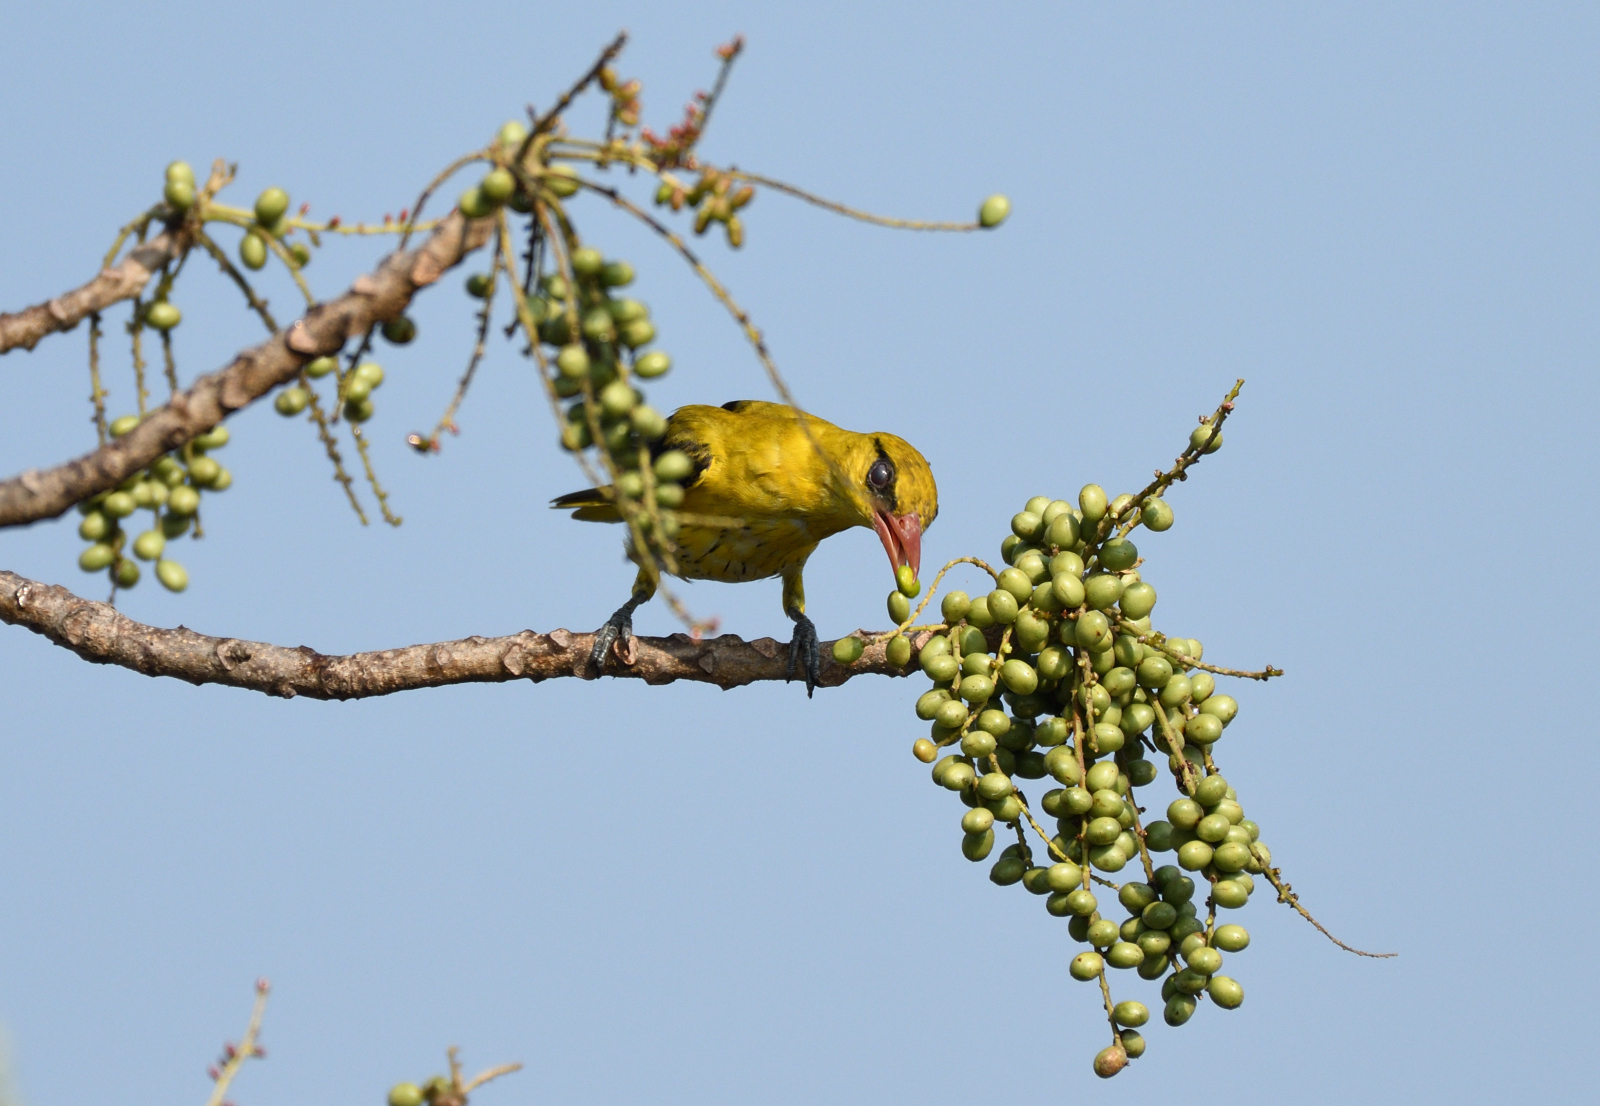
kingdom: Animalia
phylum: Chordata
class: Aves
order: Passeriformes
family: Oriolidae
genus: Oriolus
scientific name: Oriolus kundoo
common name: Indian golden oriole
